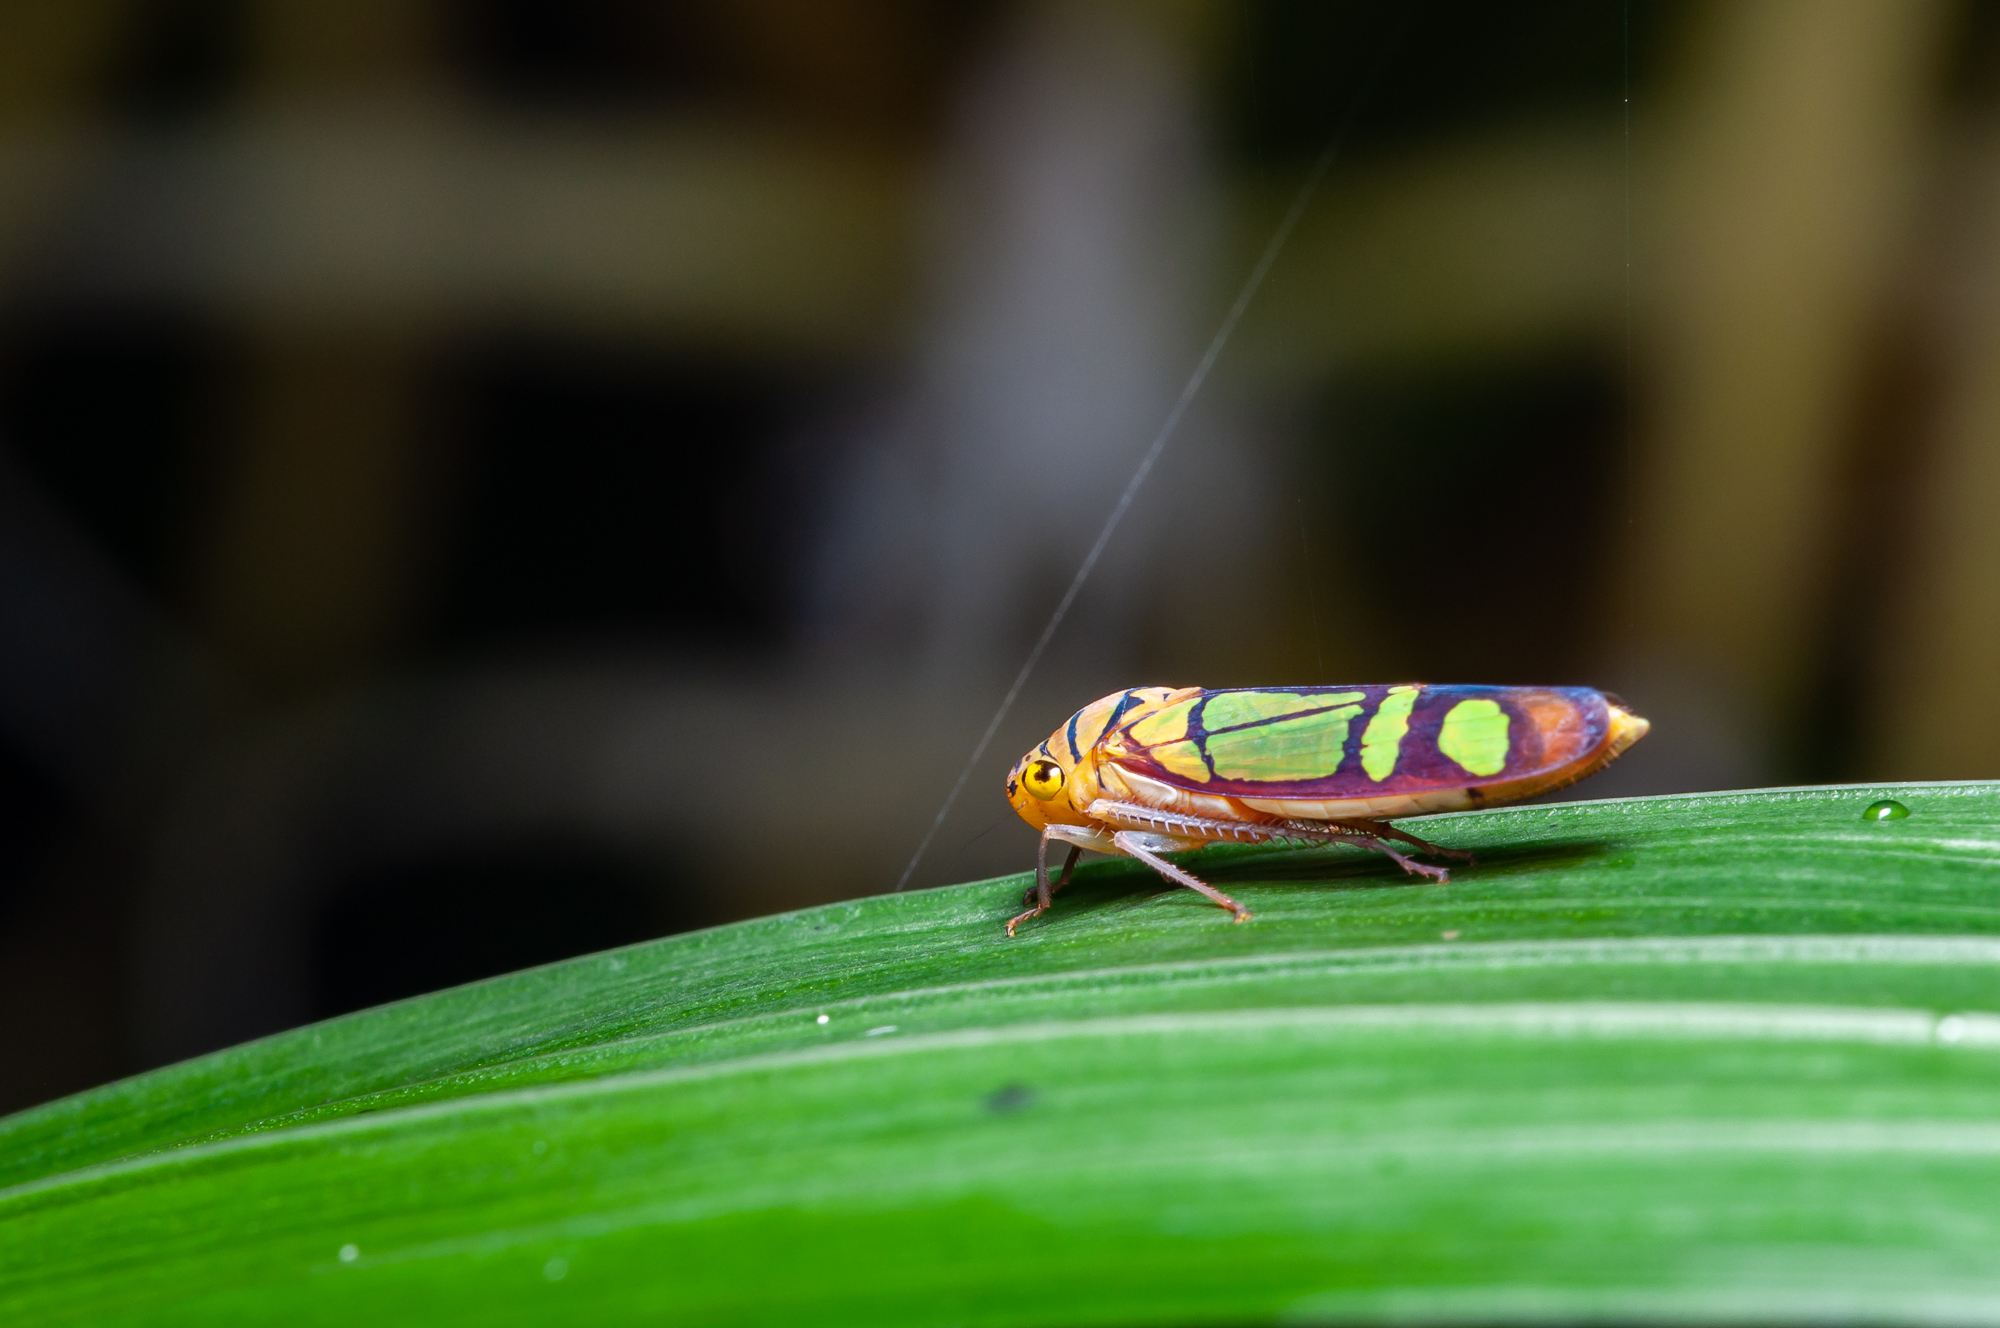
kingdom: Animalia
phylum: Arthropoda
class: Insecta
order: Hemiptera
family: Cicadellidae
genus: Dilobopterus
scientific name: Dilobopterus instratus
